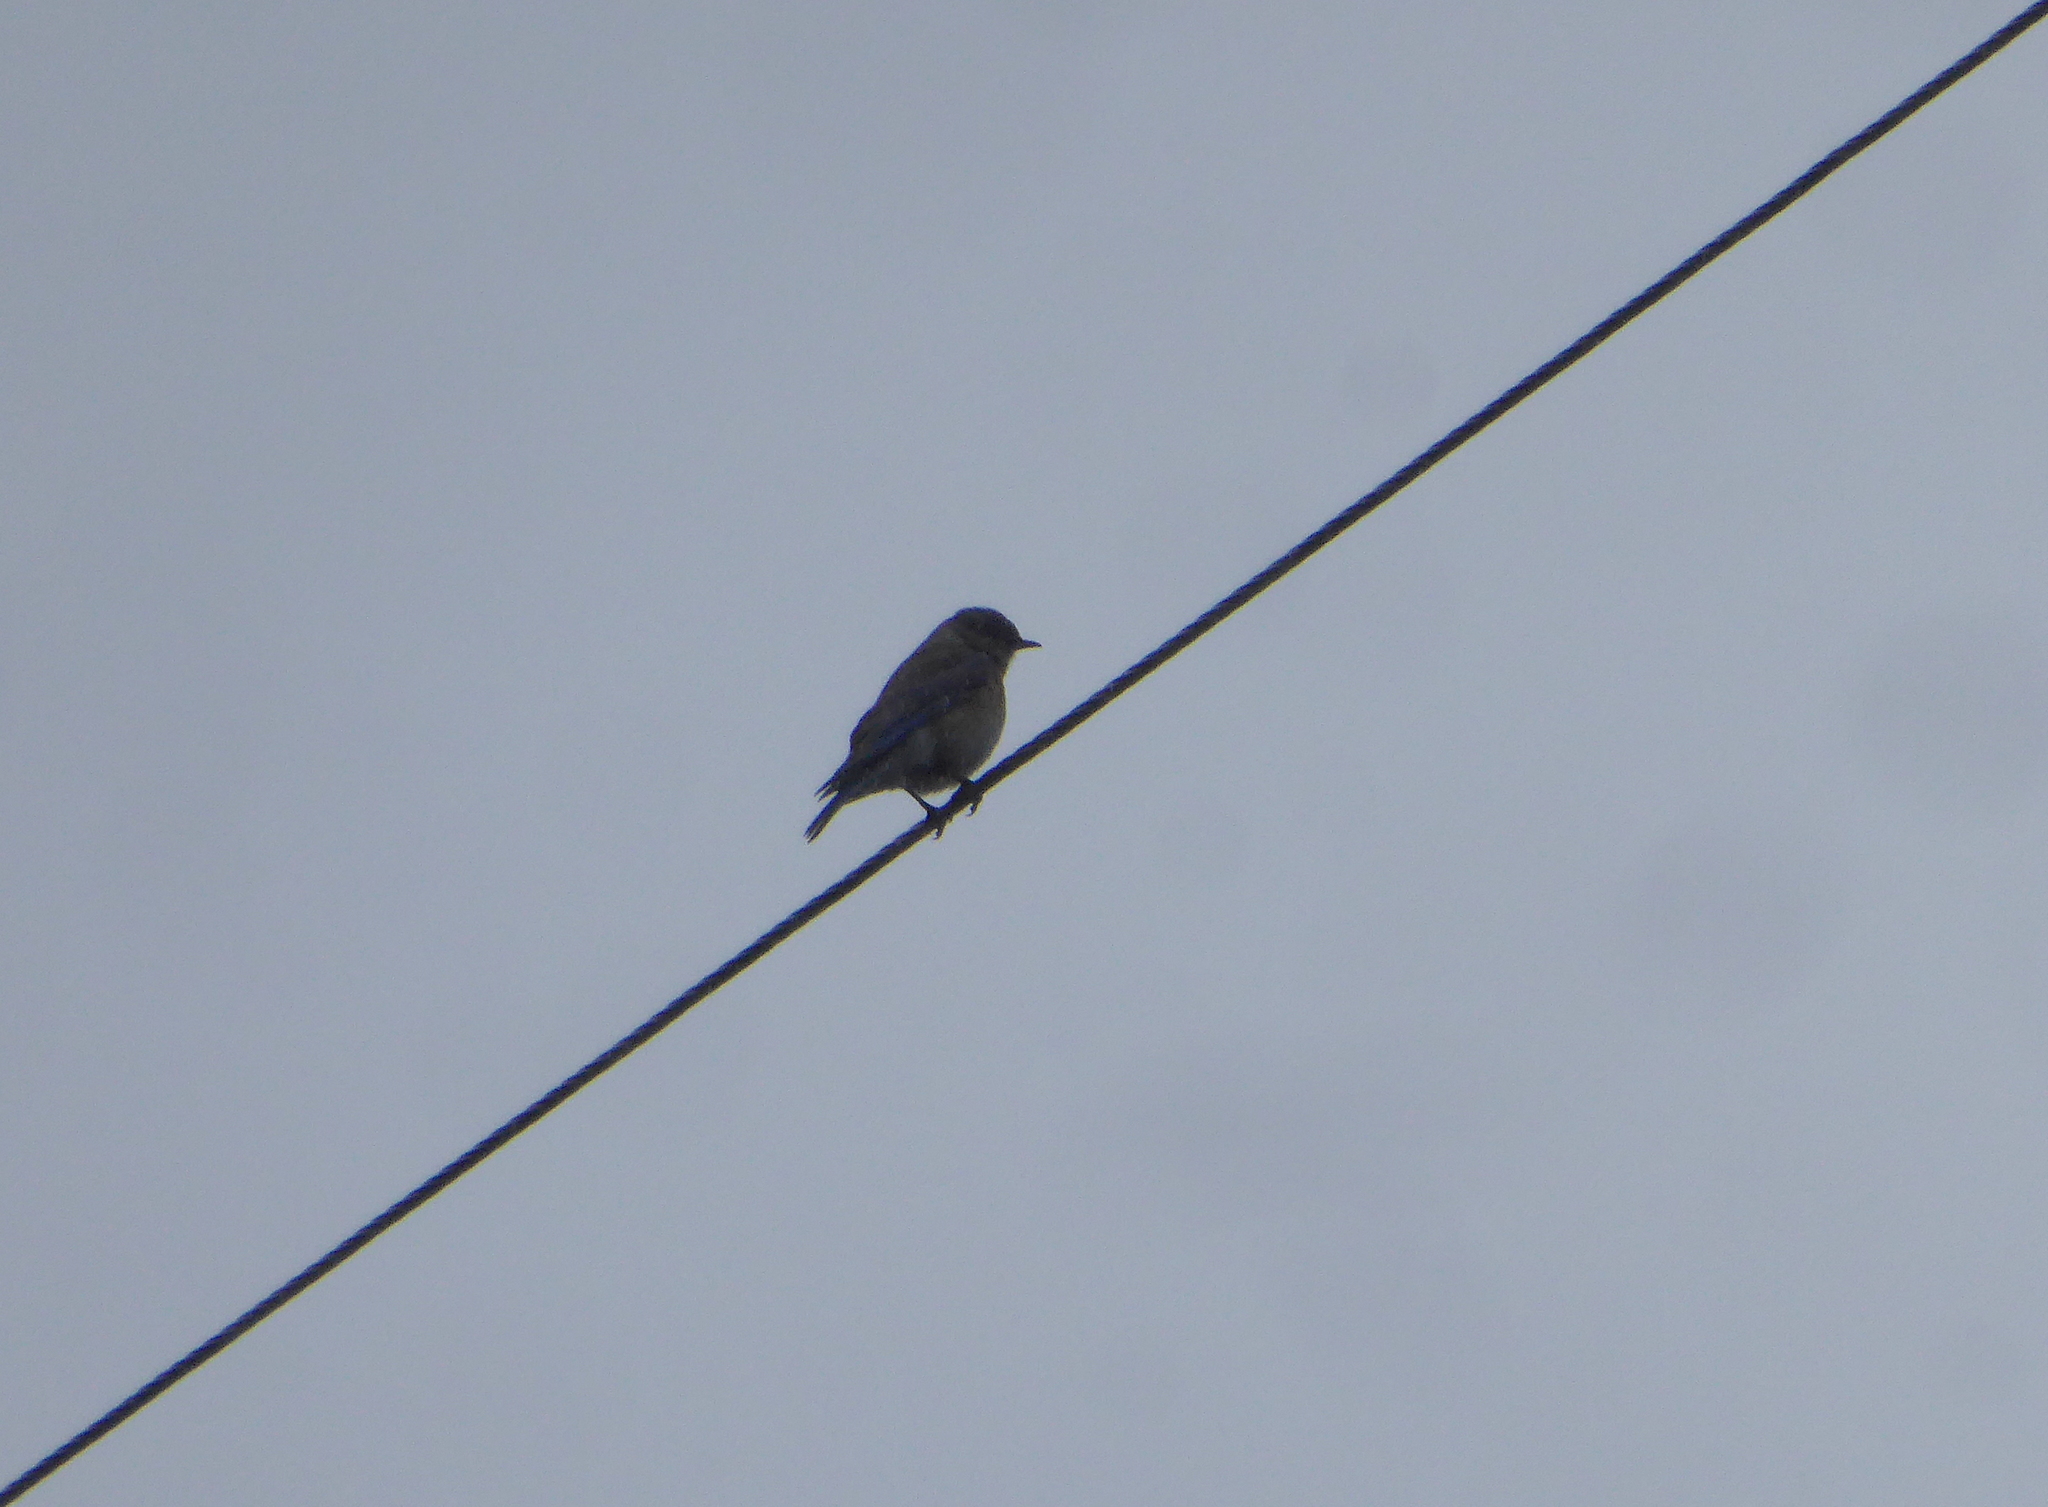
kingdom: Animalia
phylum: Chordata
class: Aves
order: Passeriformes
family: Turdidae
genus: Sialia
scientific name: Sialia mexicana
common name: Western bluebird
